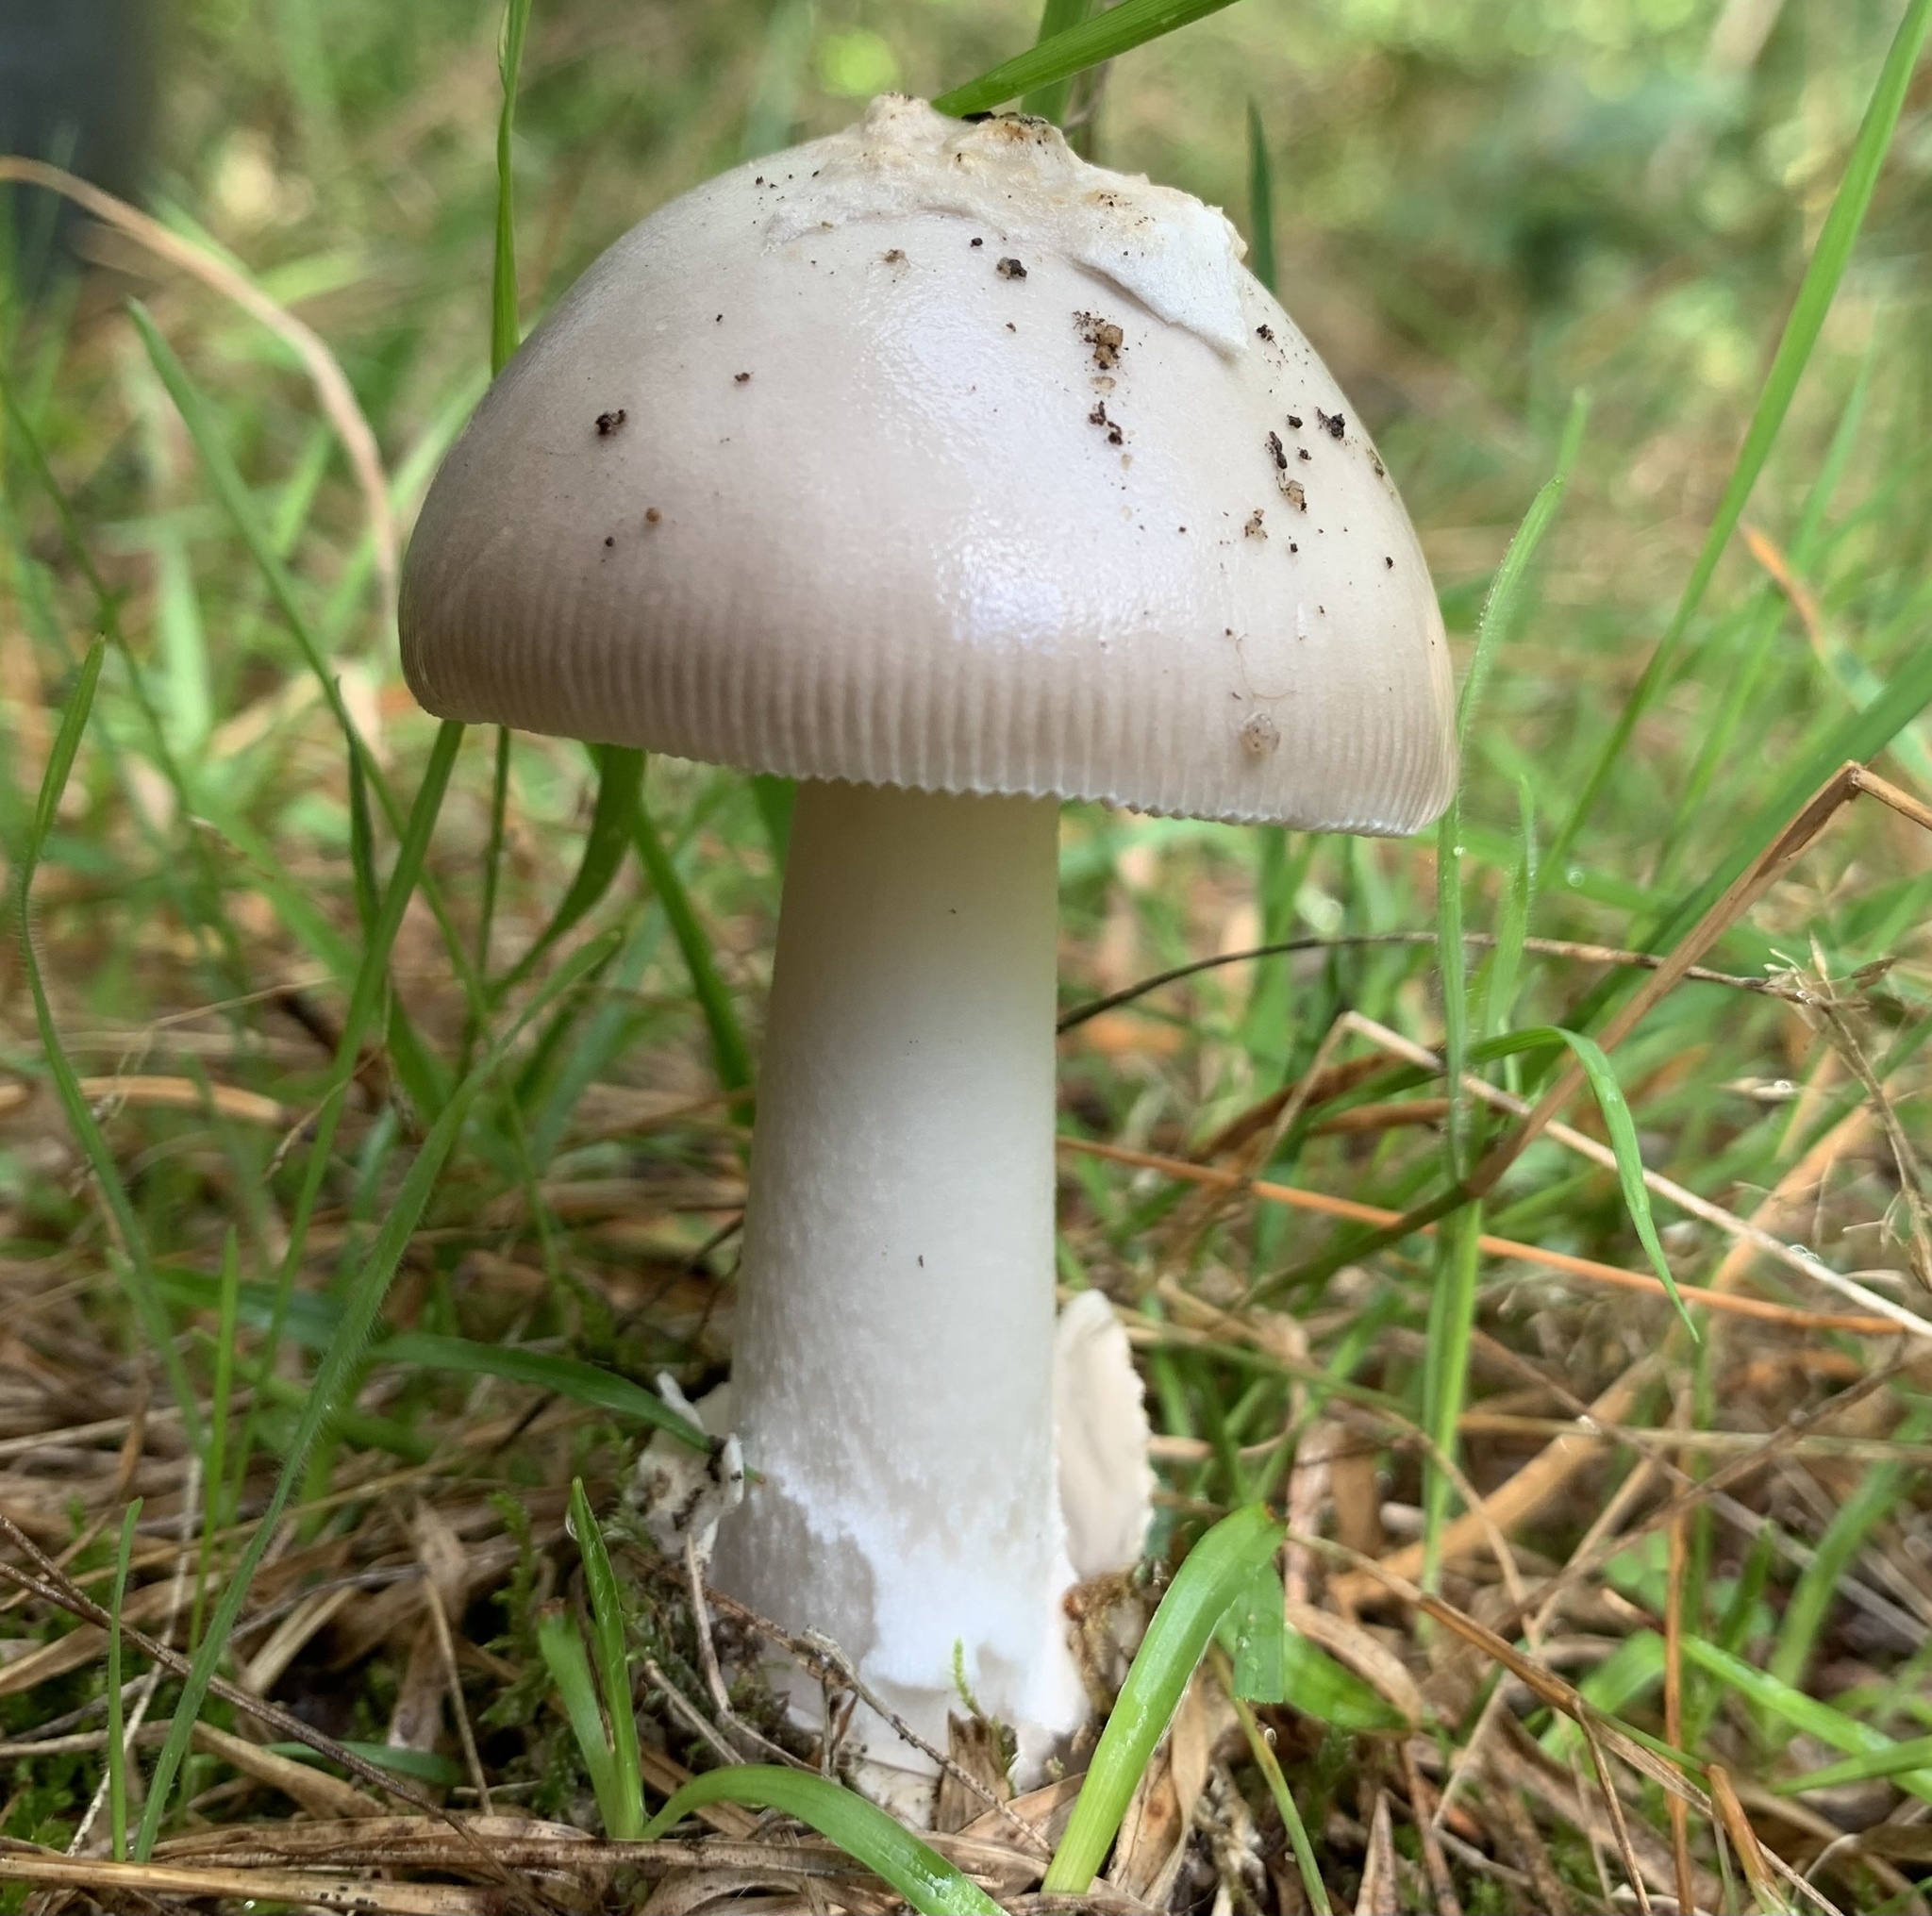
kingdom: Fungi
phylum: Basidiomycota
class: Agaricomycetes
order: Agaricales
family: Amanitaceae
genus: Amanita
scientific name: Amanita vaginata
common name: Grisette
